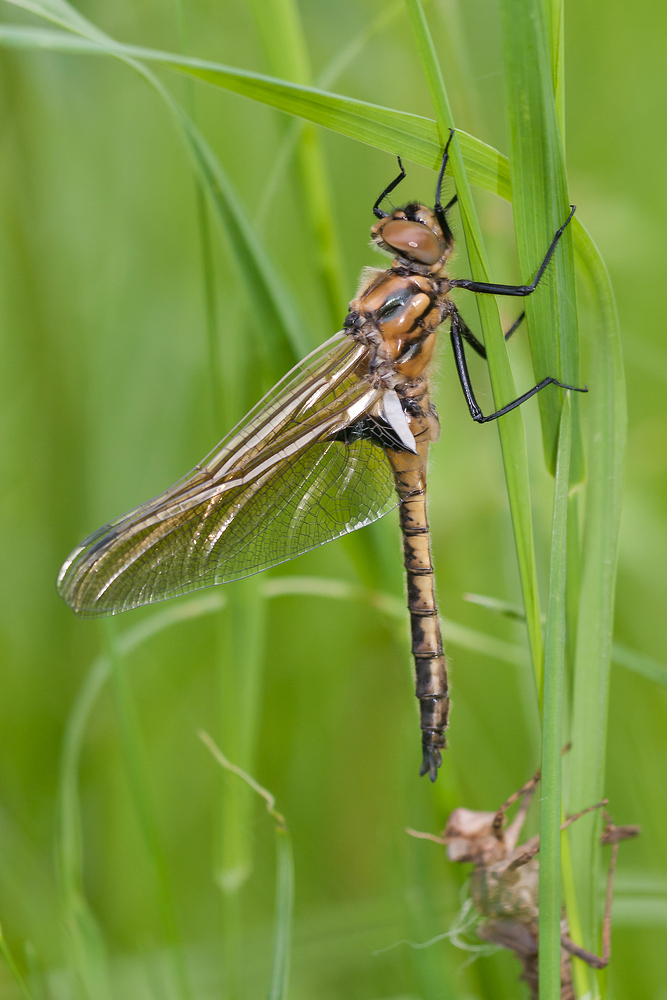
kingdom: Animalia
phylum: Arthropoda
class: Insecta
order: Odonata
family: Corduliidae
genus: Epitheca
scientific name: Epitheca bimaculata
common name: Eurasian baskettail
